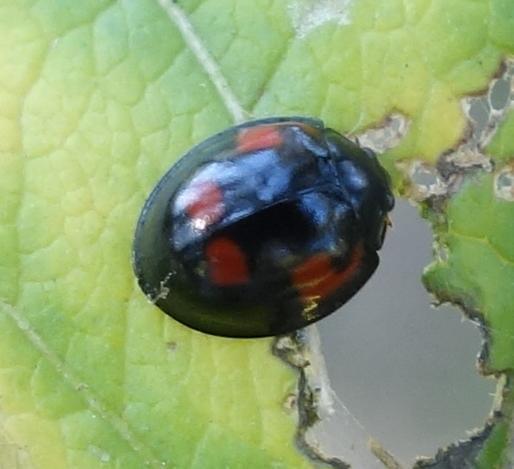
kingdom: Animalia
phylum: Arthropoda
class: Insecta
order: Coleoptera
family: Coccinellidae
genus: Brumus
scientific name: Brumus quadripustulatus
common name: Ladybird beetle
